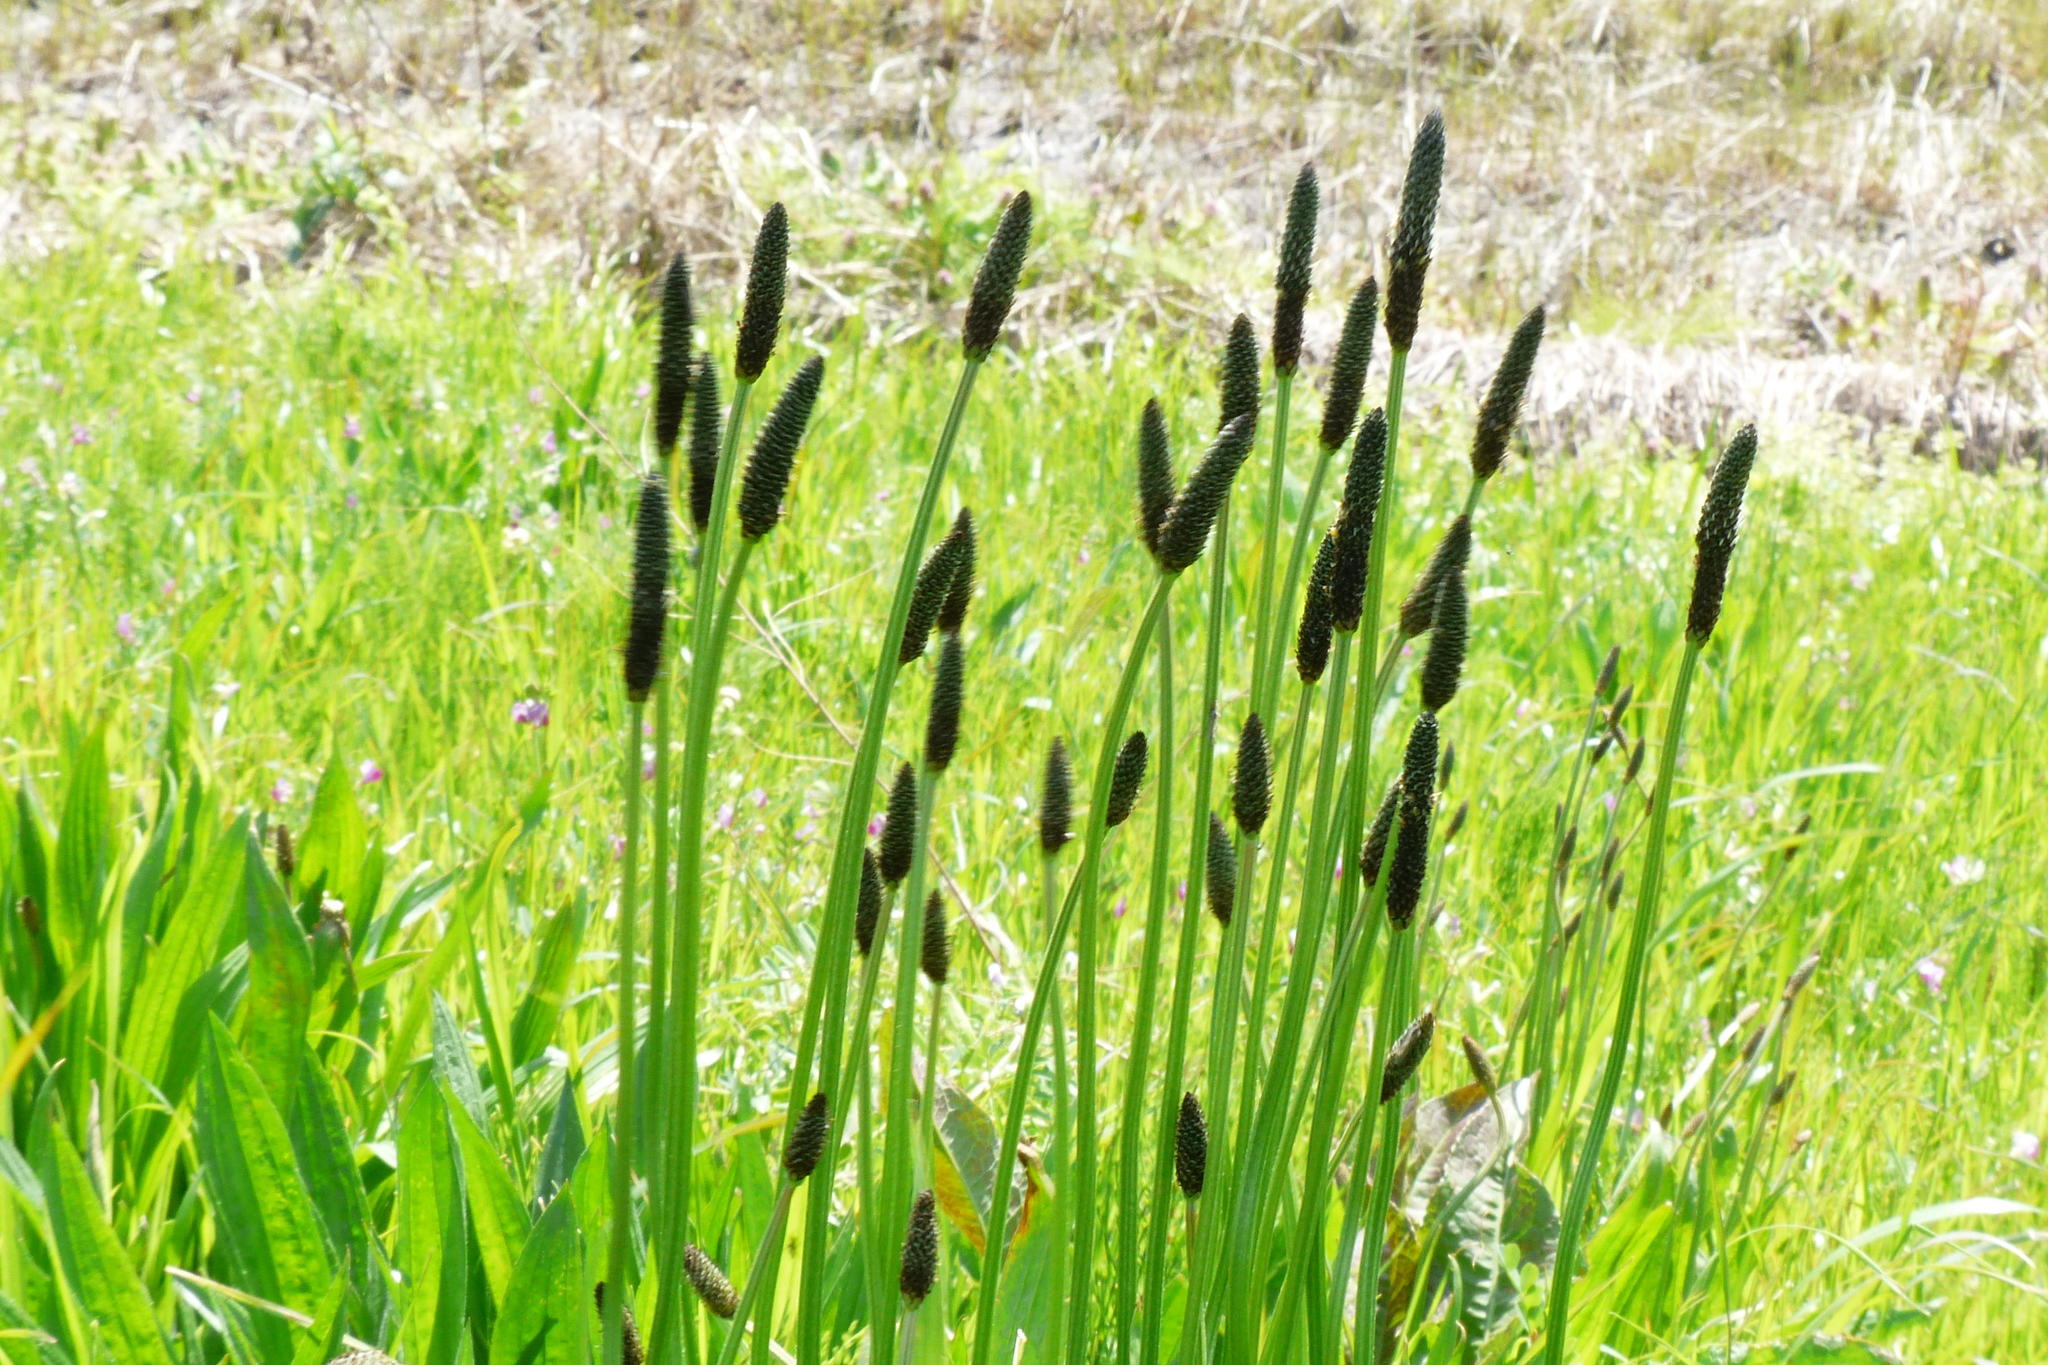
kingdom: Plantae
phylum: Tracheophyta
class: Magnoliopsida
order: Lamiales
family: Plantaginaceae
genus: Plantago
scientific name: Plantago lanceolata
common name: Ribwort plantain
